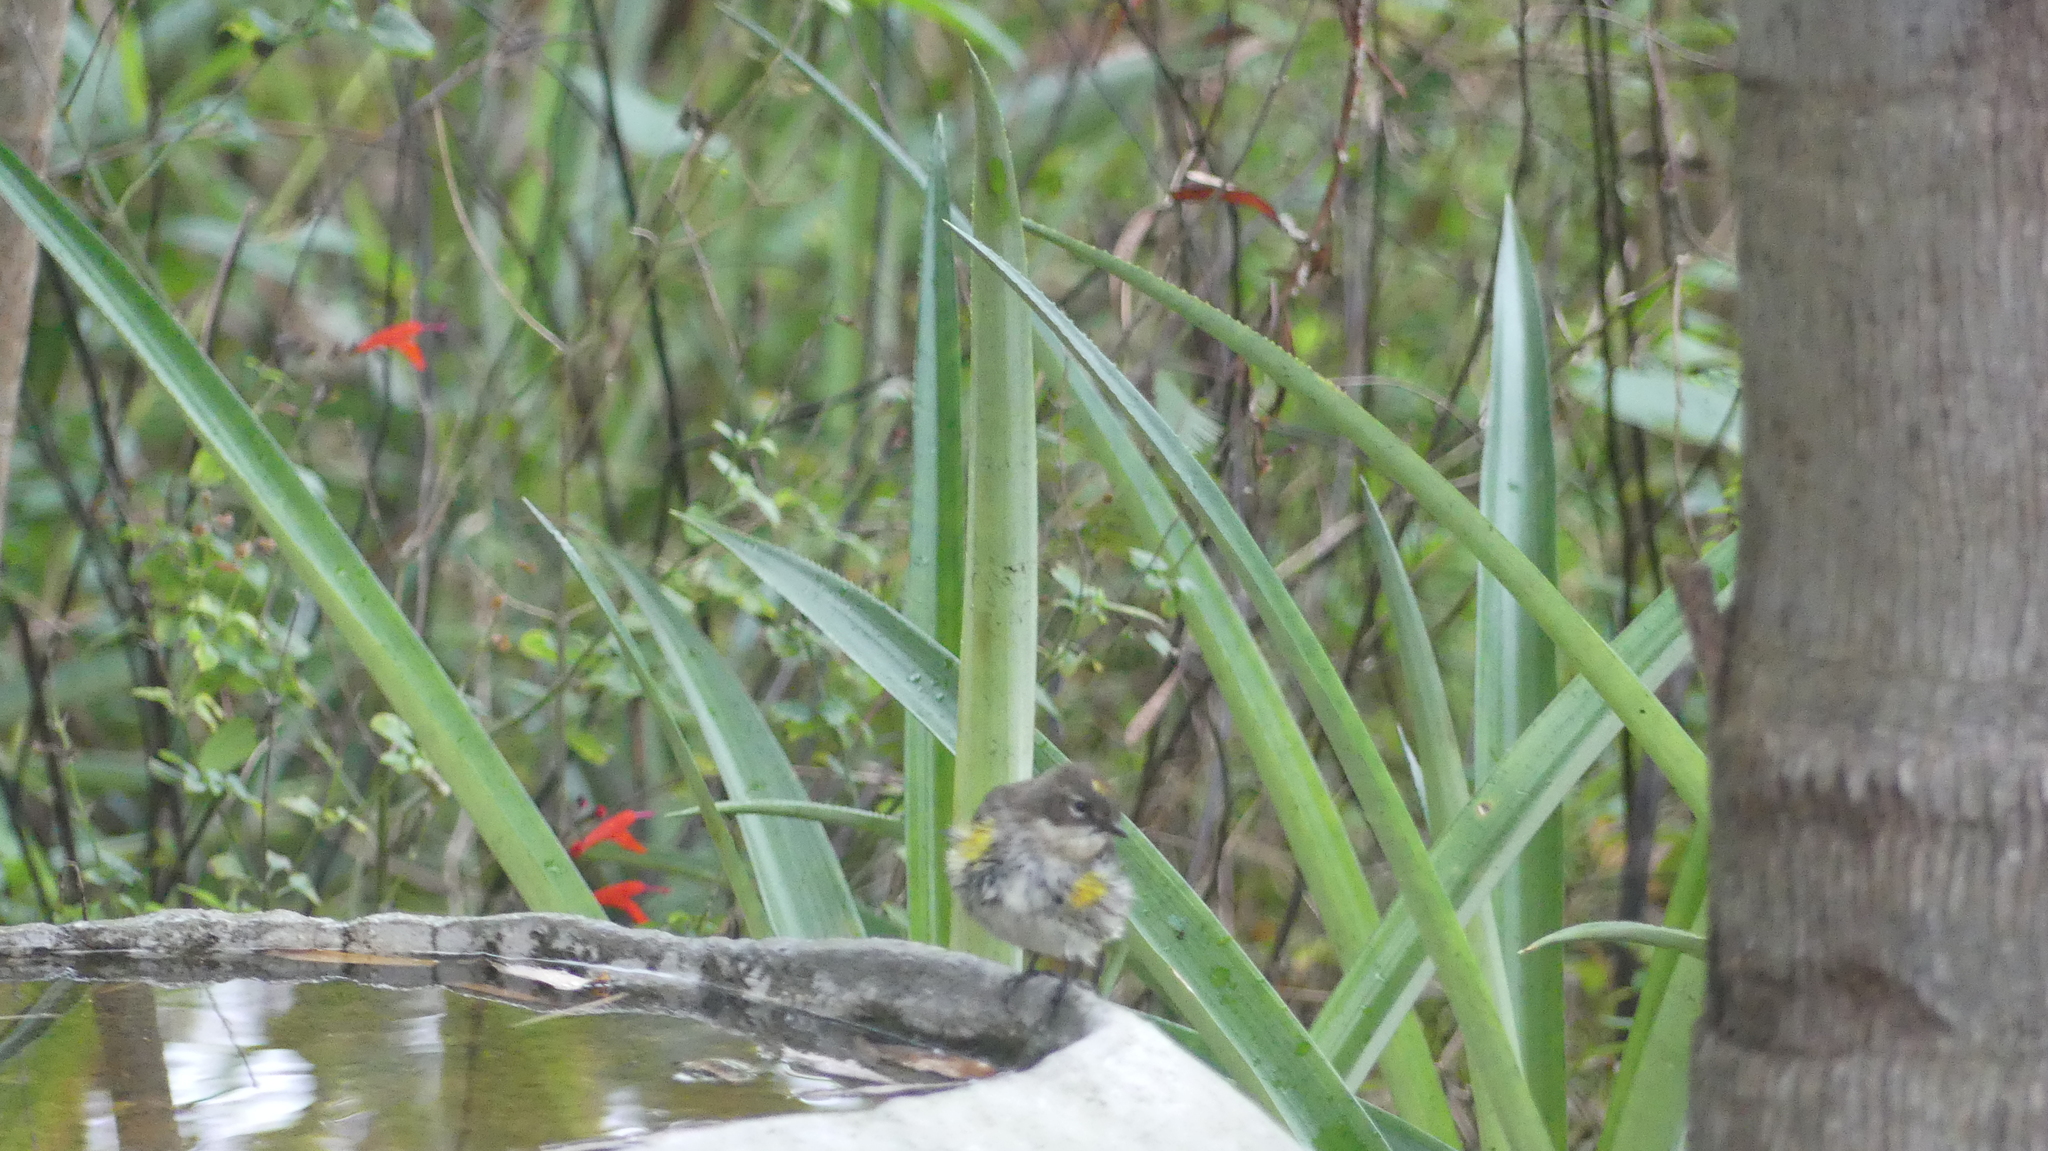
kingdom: Animalia
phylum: Chordata
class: Aves
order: Passeriformes
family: Parulidae
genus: Setophaga
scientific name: Setophaga coronata
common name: Myrtle warbler
